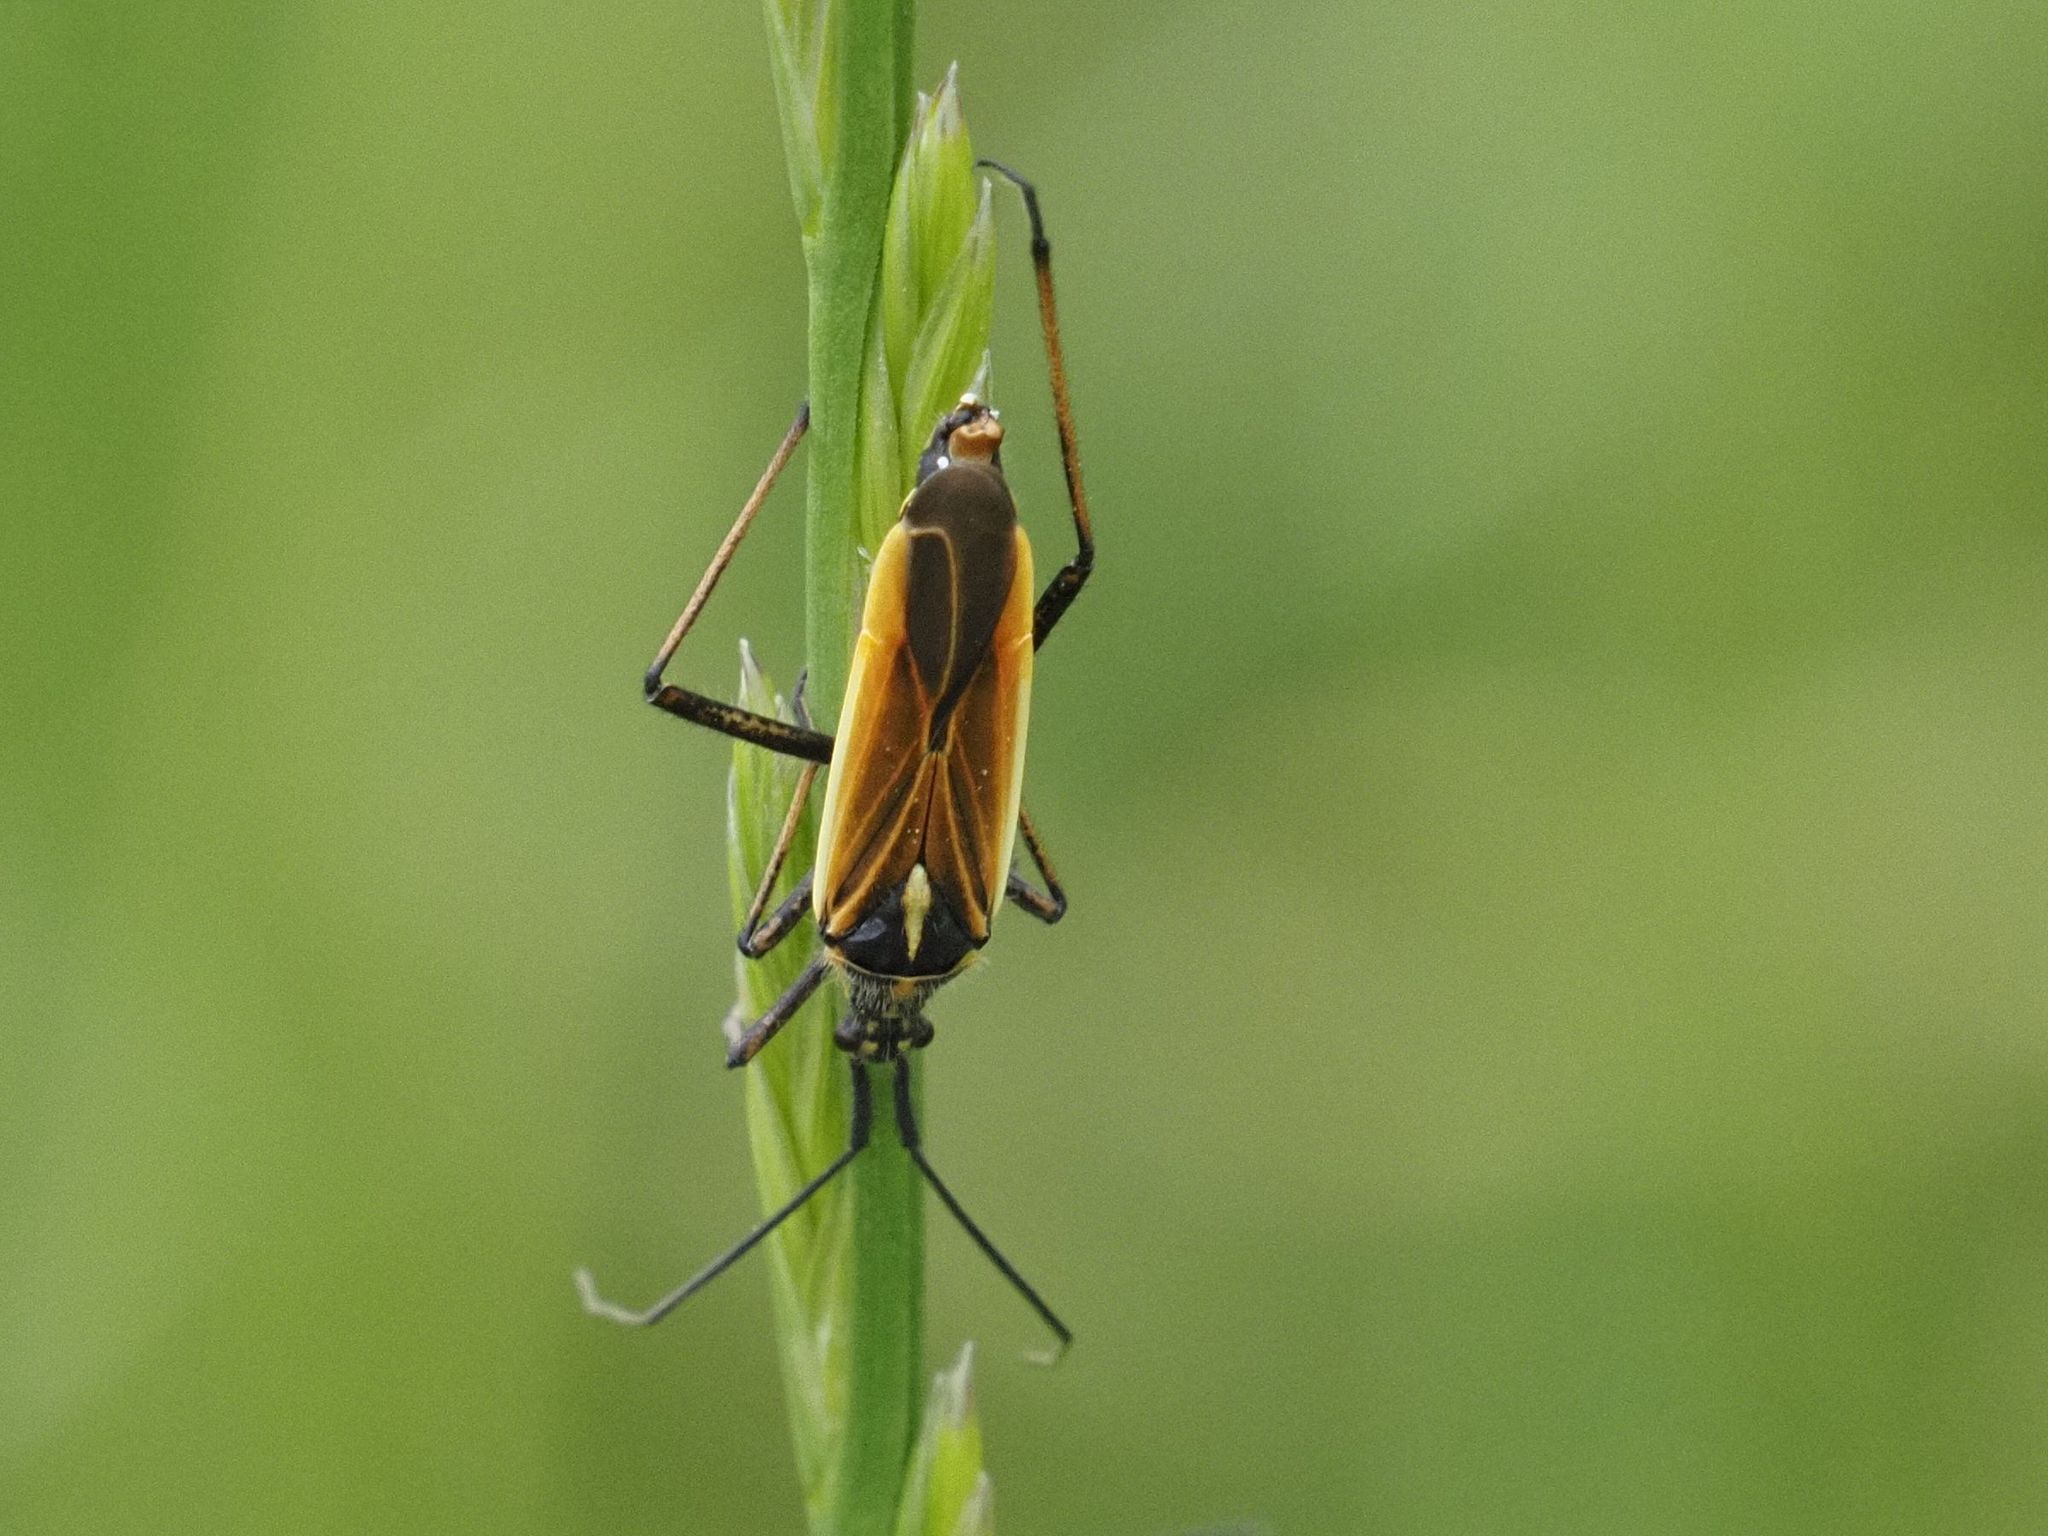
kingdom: Animalia
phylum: Arthropoda
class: Insecta
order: Hemiptera
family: Miridae
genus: Leptopterna
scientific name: Leptopterna dolabrata
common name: Meadow plant bug
